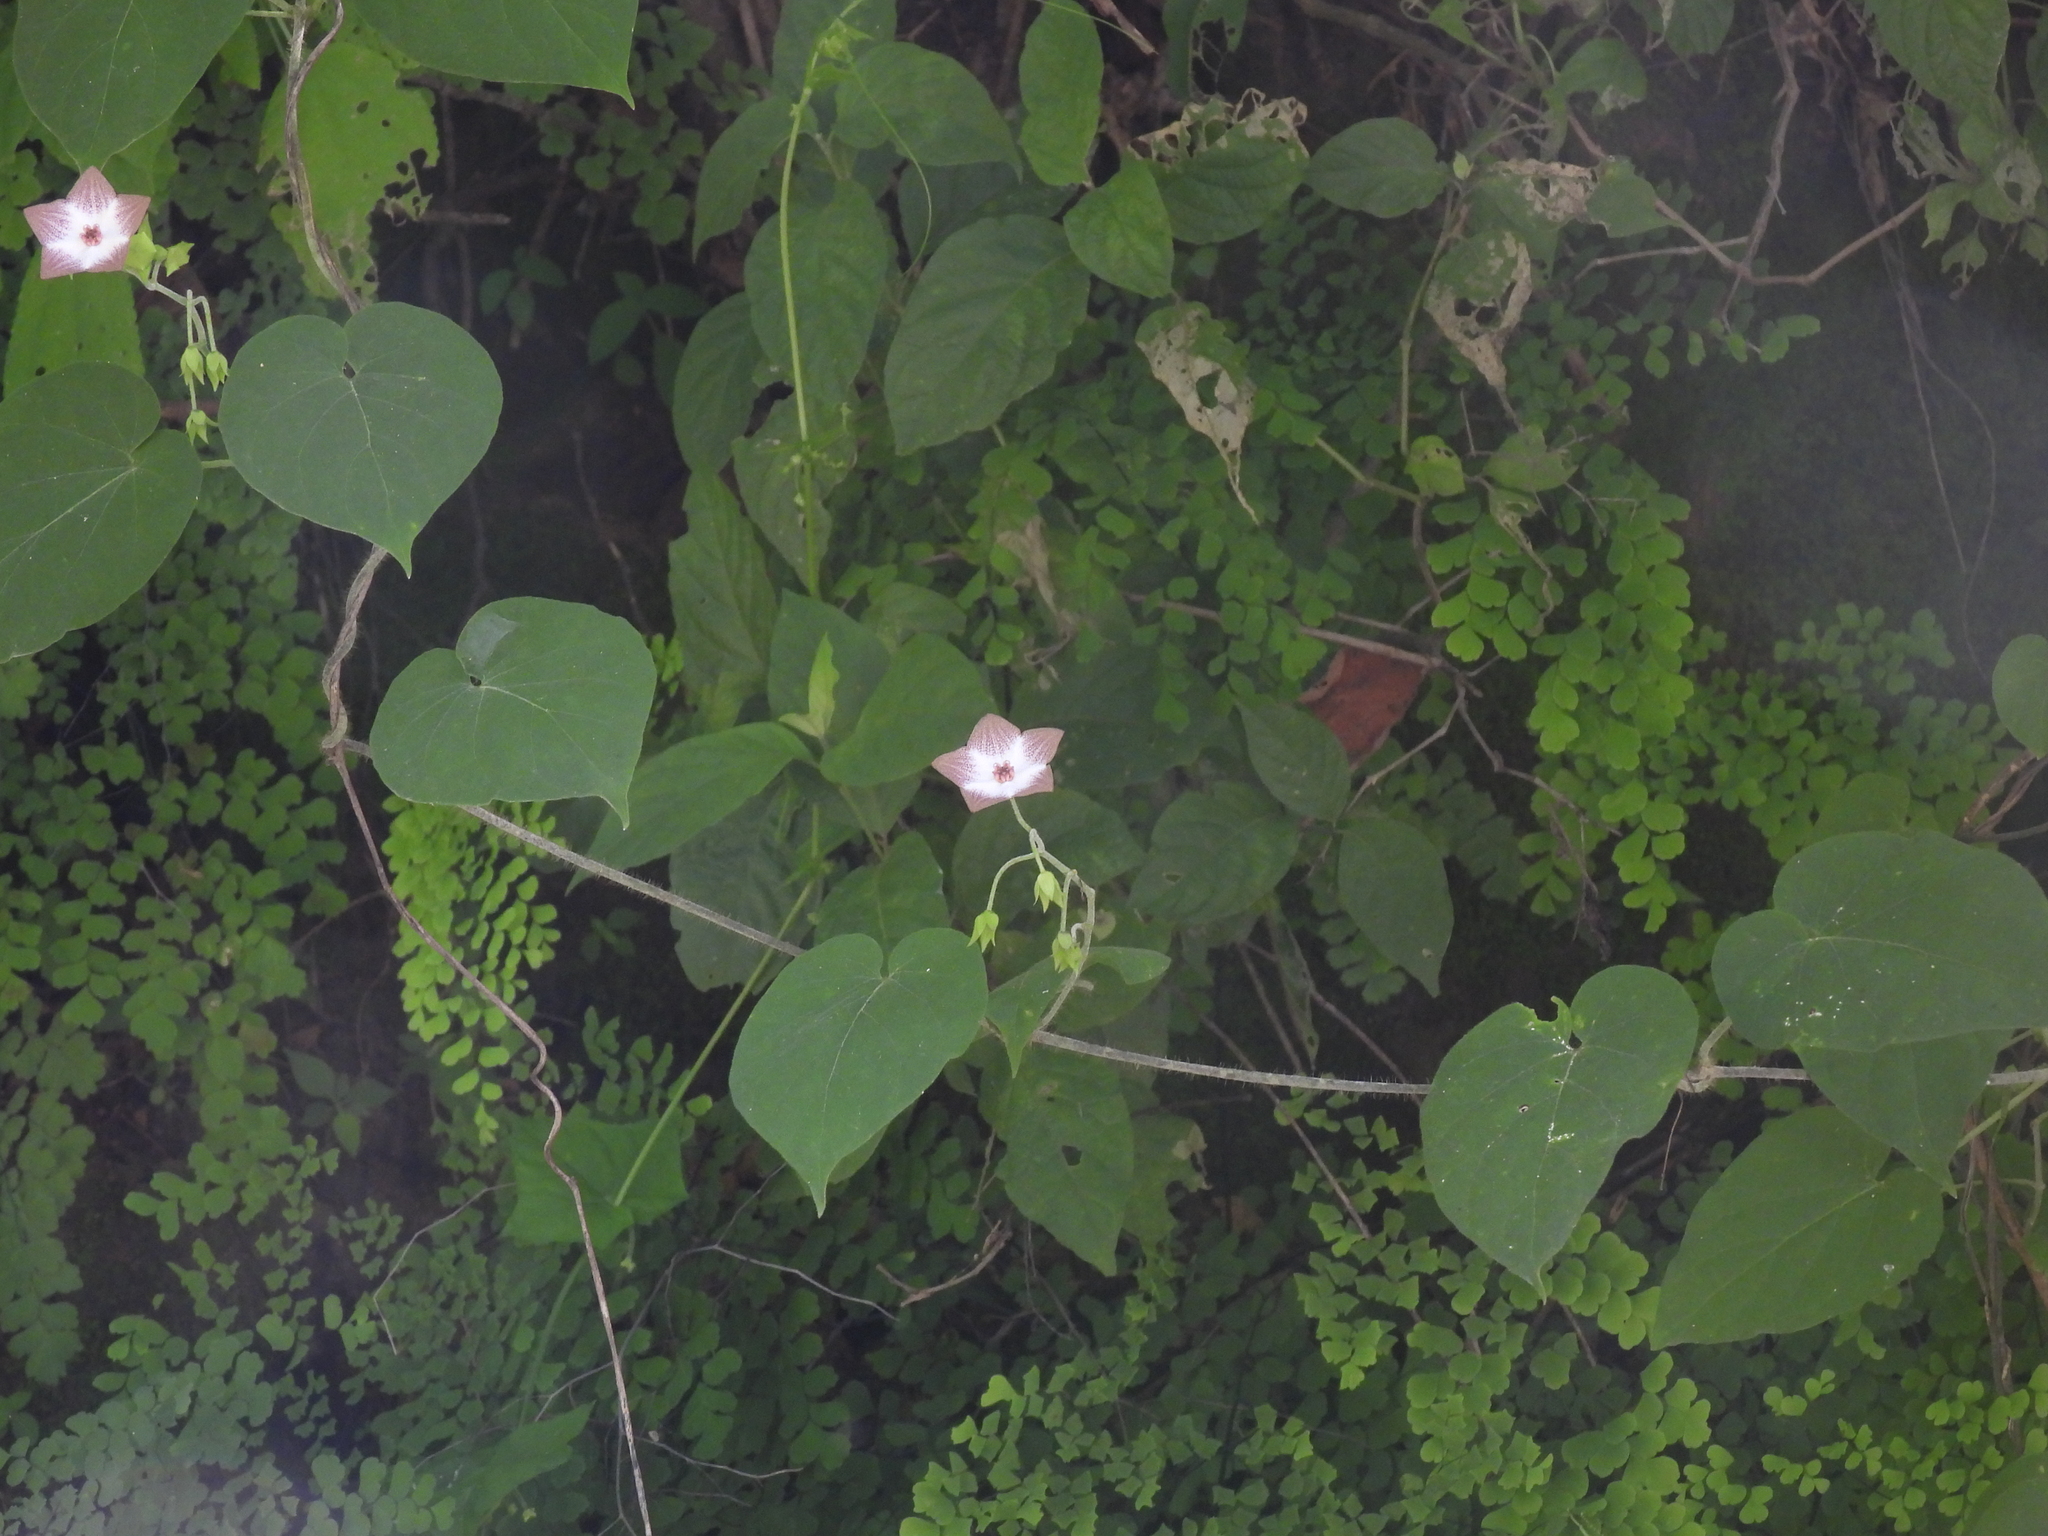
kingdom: Plantae
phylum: Tracheophyta
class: Magnoliopsida
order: Gentianales
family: Apocynaceae
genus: Polystemma
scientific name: Polystemma guatemalense
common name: Arborescente rattan
